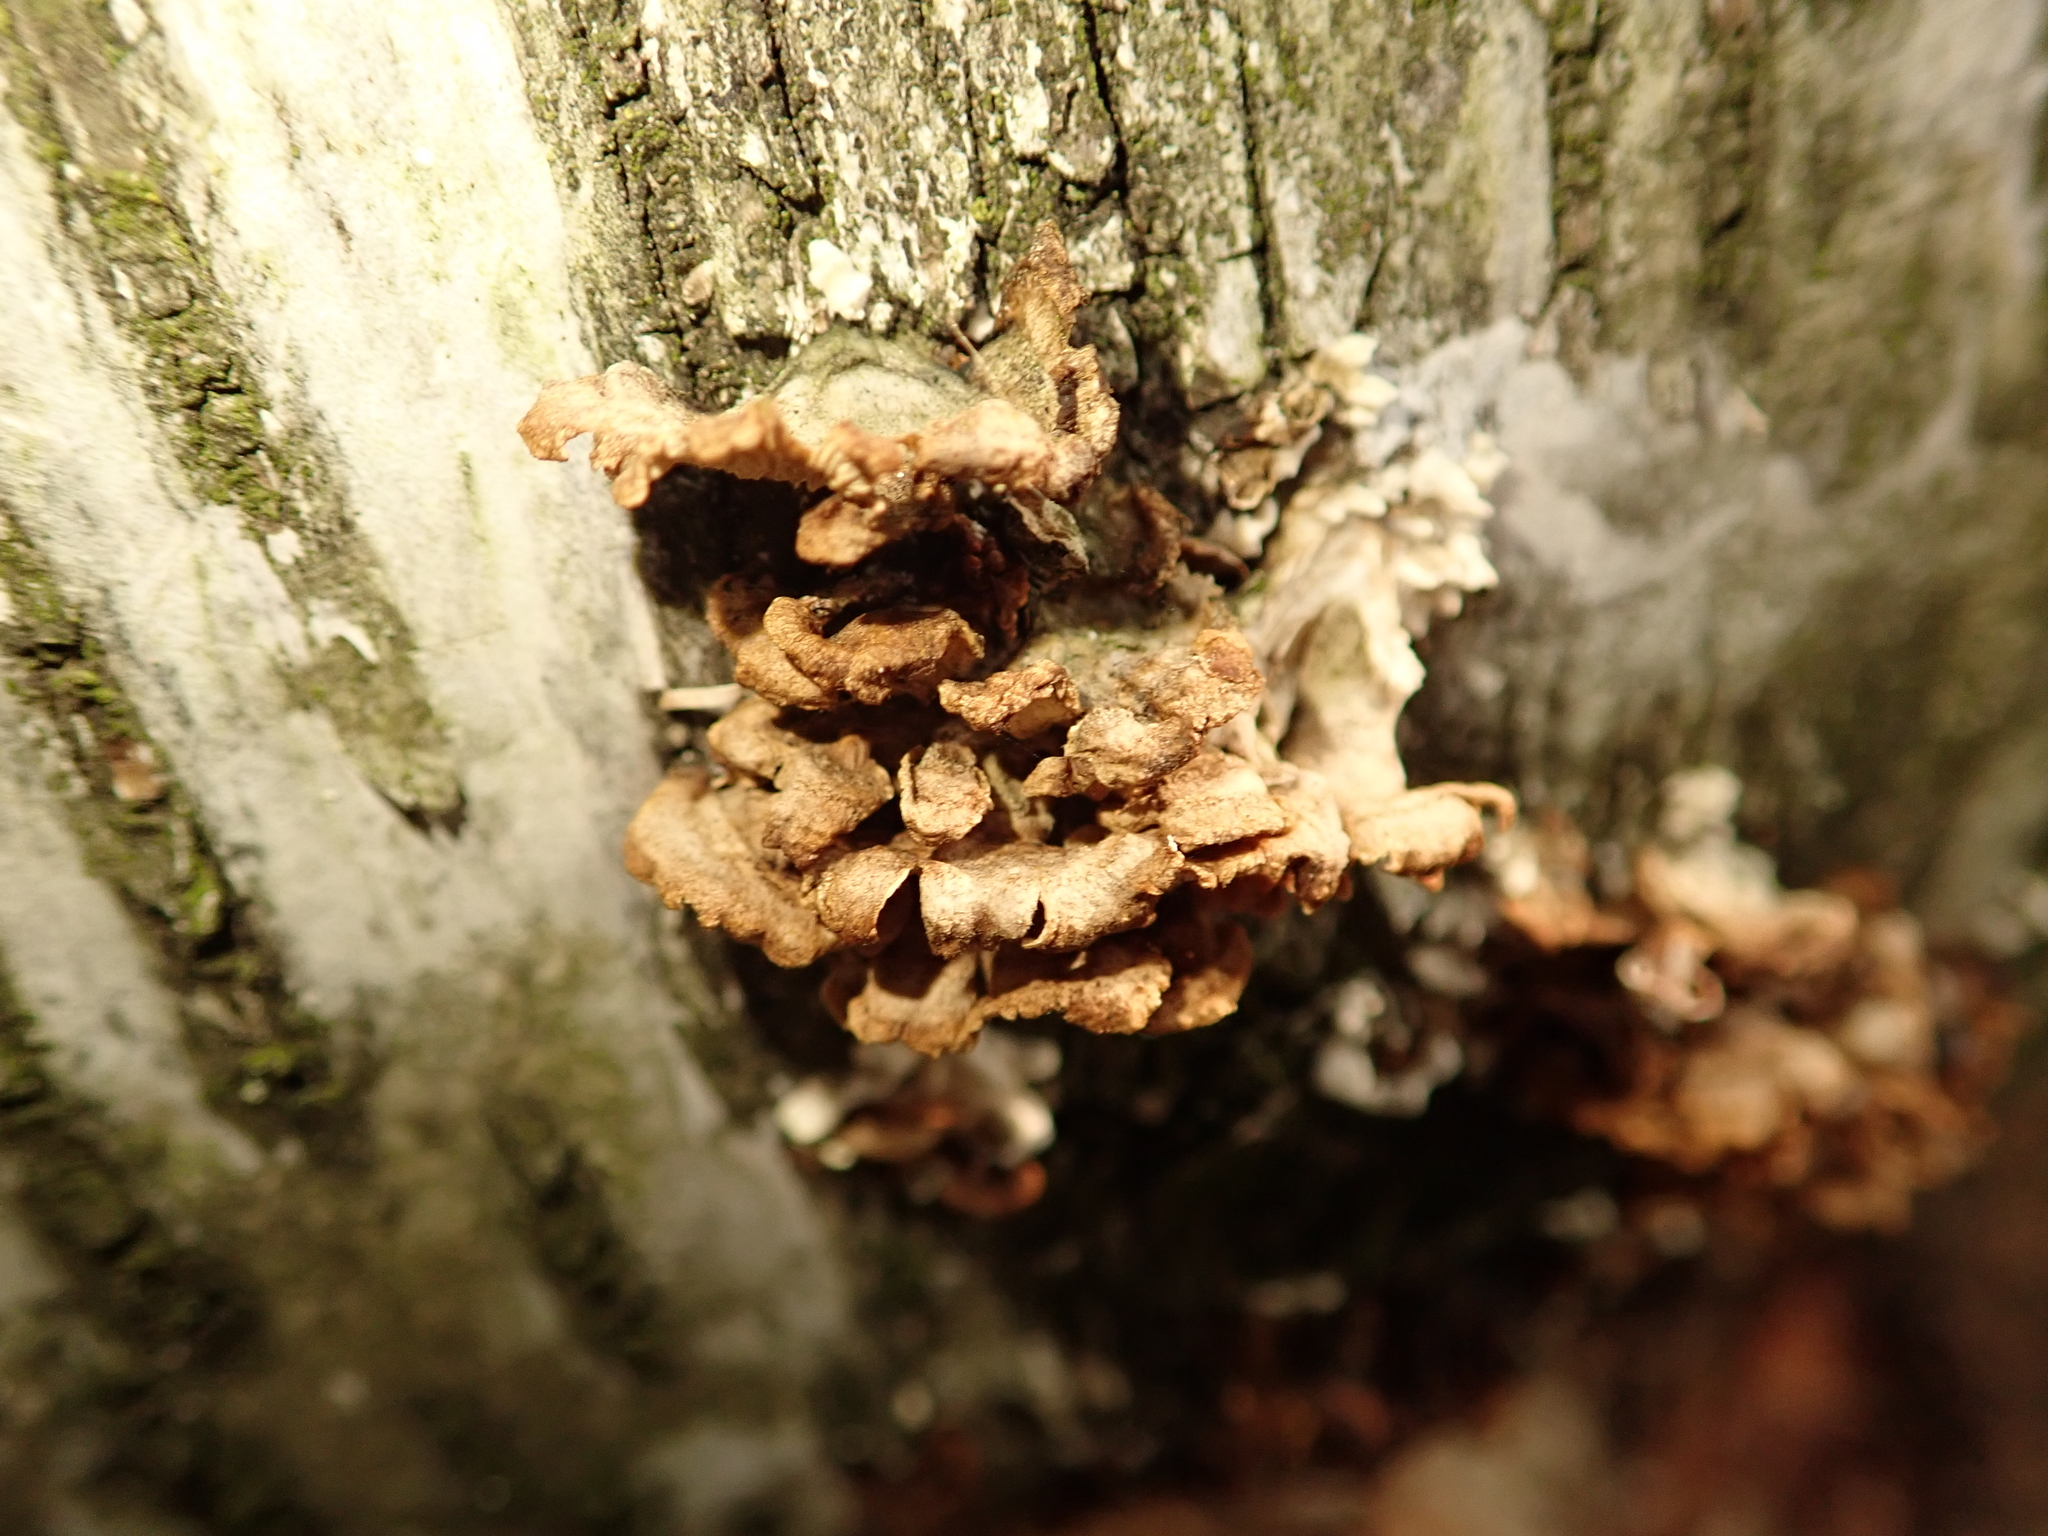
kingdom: Fungi
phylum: Basidiomycota
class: Agaricomycetes
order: Agaricales
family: Schizophyllaceae
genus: Schizophyllum
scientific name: Schizophyllum commune
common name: Common porecrust
